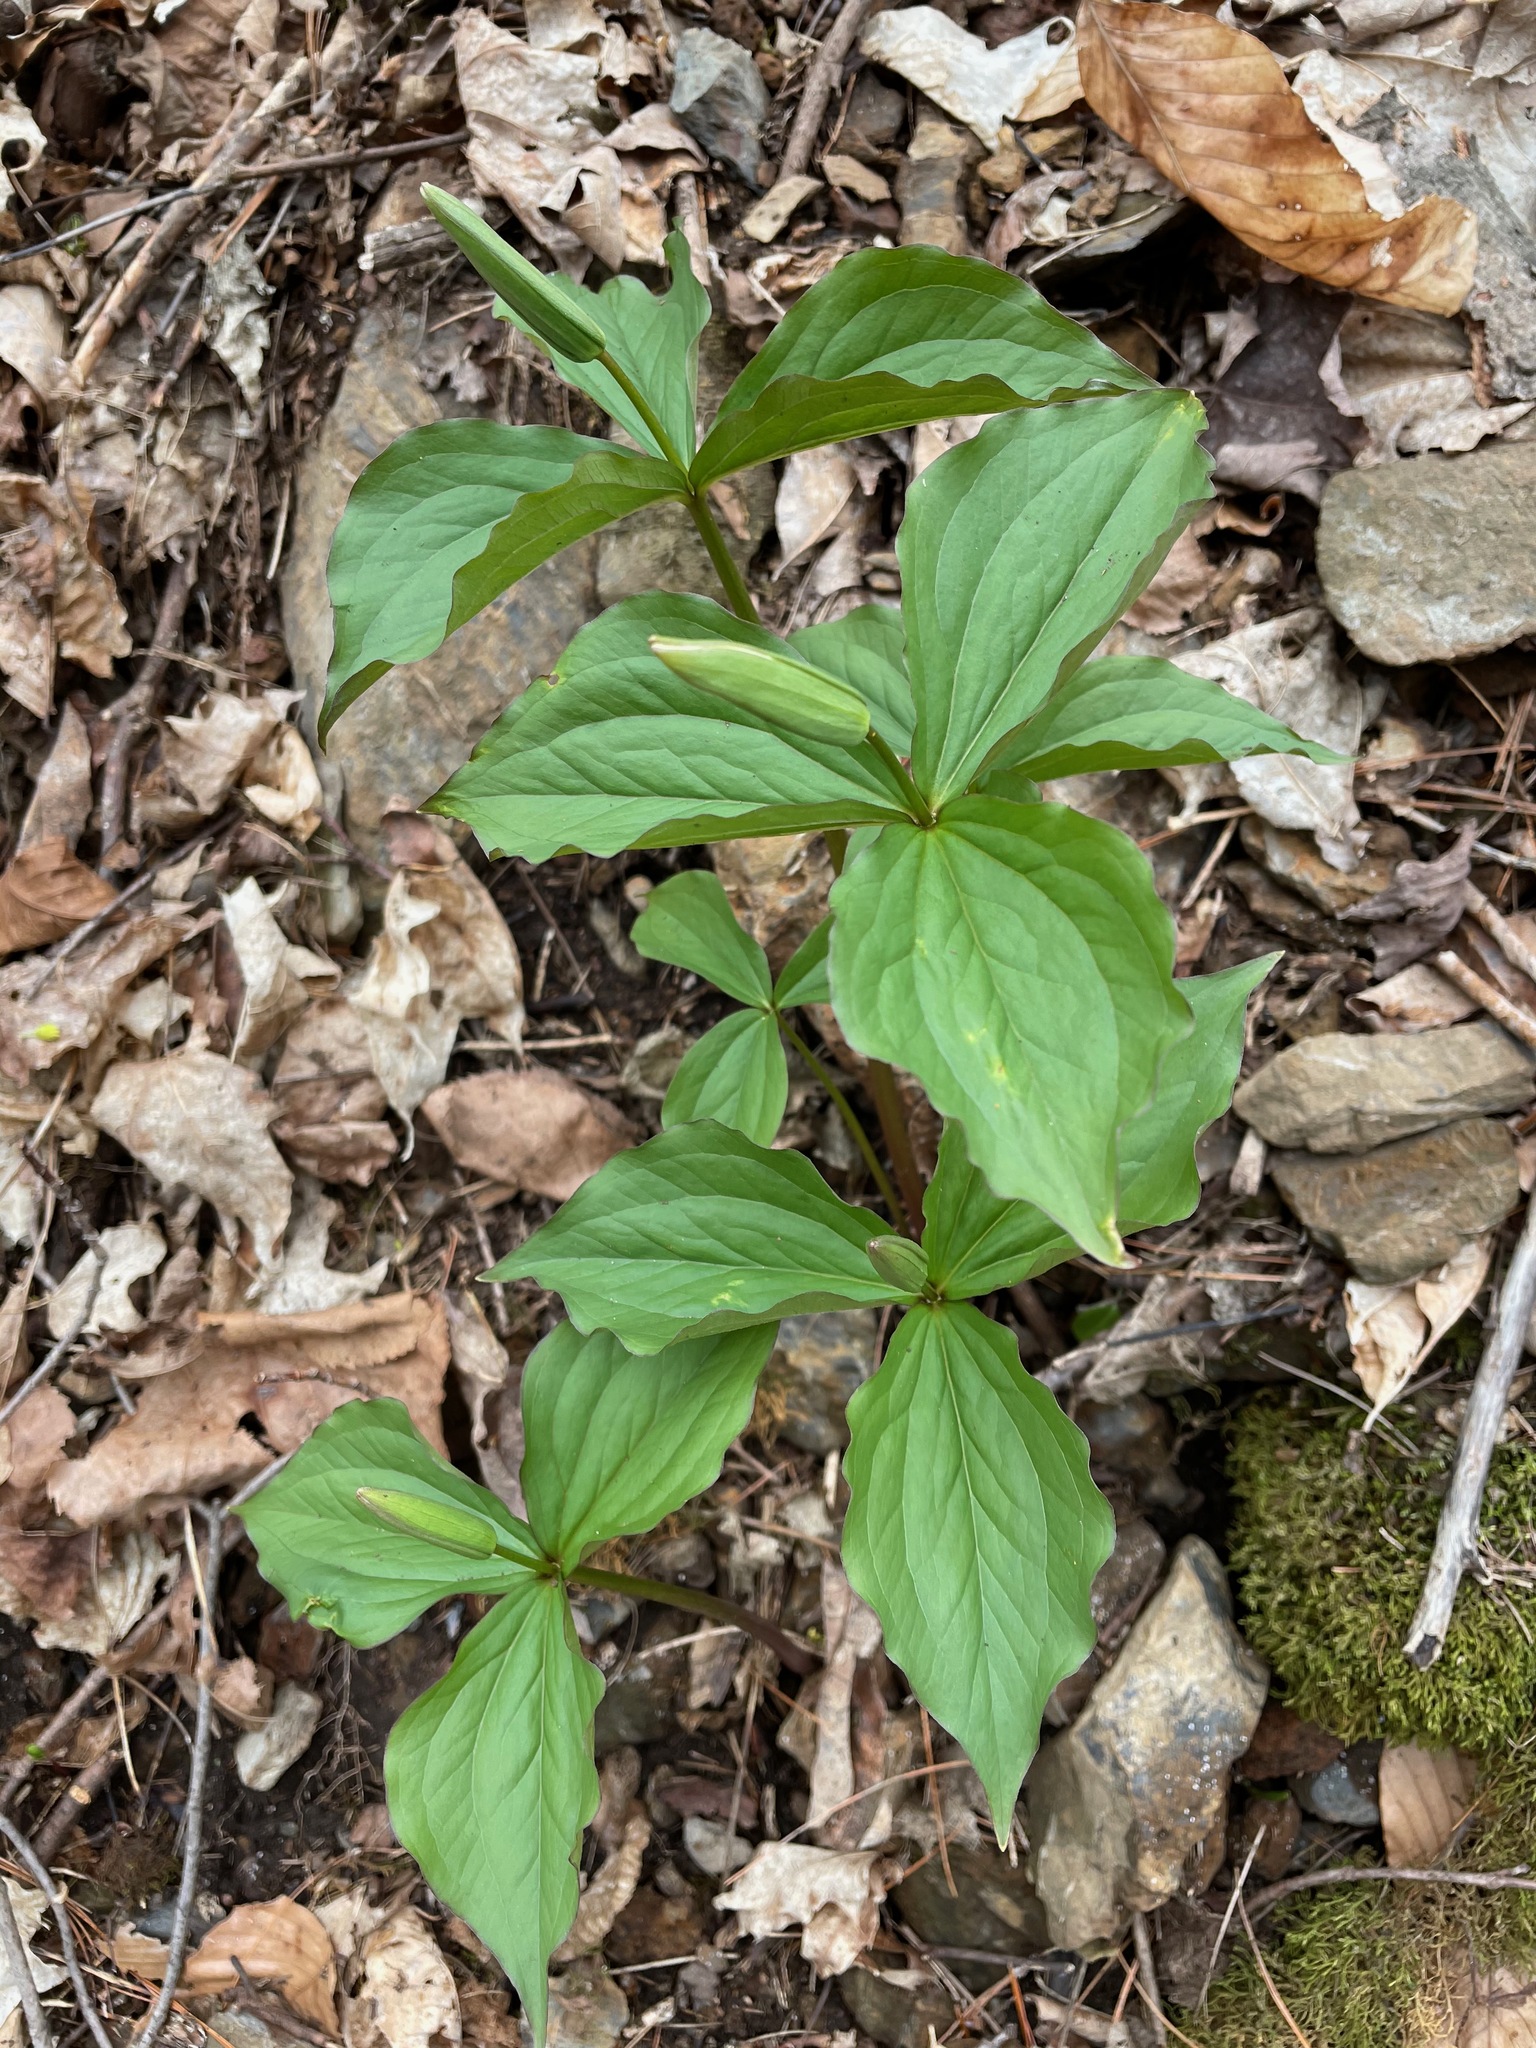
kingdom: Plantae
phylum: Tracheophyta
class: Liliopsida
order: Liliales
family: Melanthiaceae
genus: Trillium
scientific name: Trillium grandiflorum
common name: Great white trillium
